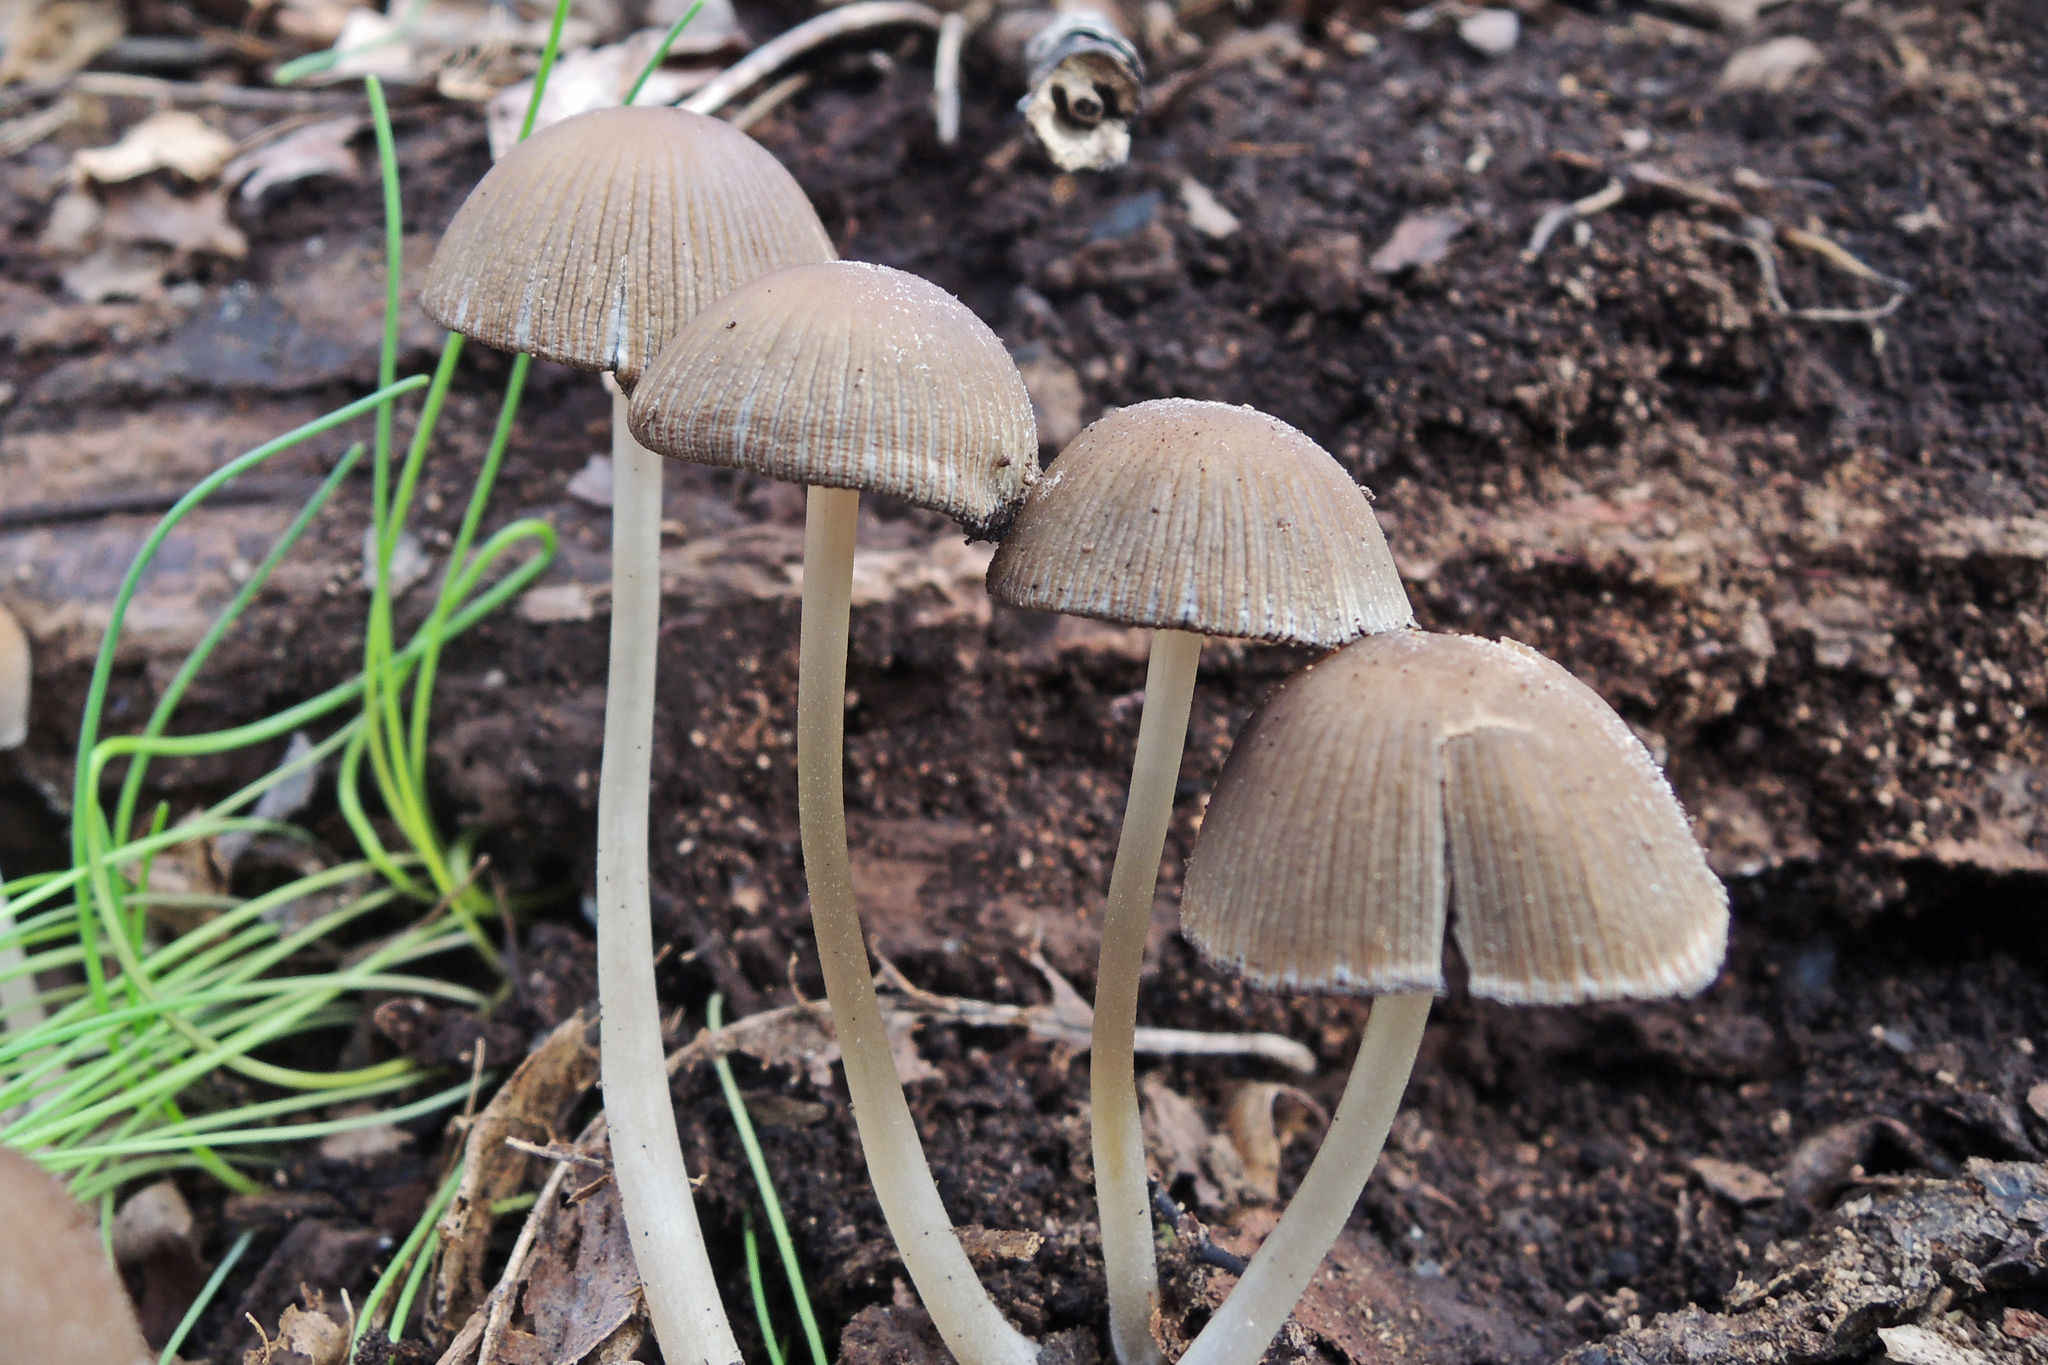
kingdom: Fungi
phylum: Basidiomycota
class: Agaricomycetes
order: Agaricales
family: Psathyrellaceae
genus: Coprinellus
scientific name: Coprinellus micaceus
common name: Glistening ink-cap
